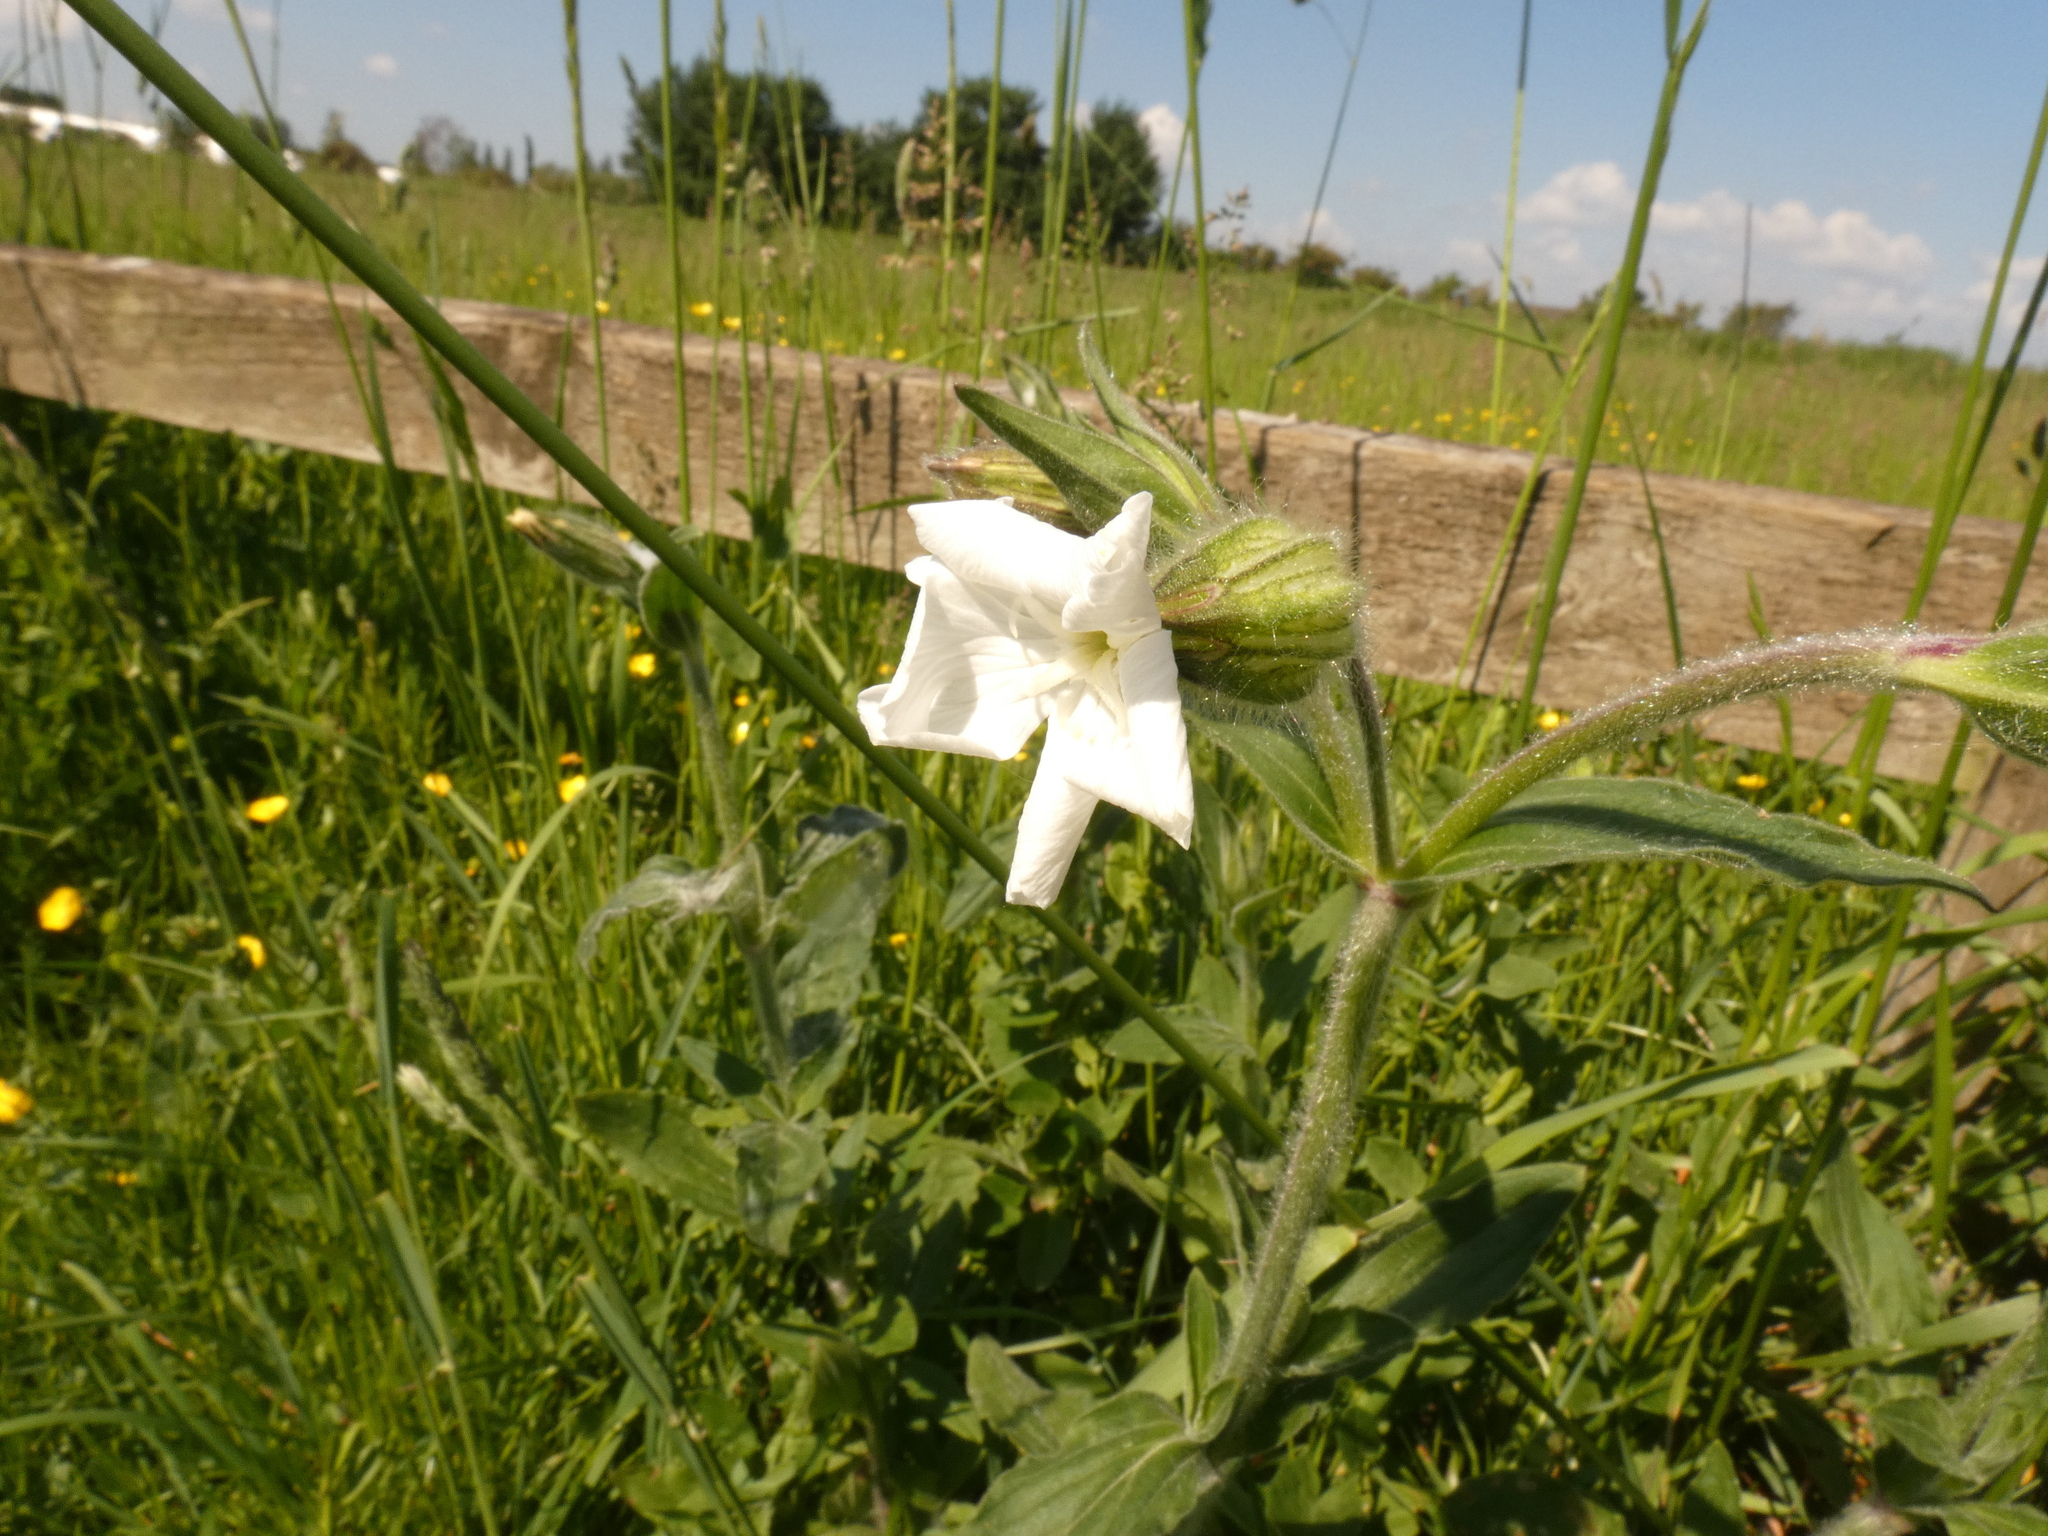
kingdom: Plantae
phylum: Tracheophyta
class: Magnoliopsida
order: Caryophyllales
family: Caryophyllaceae
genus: Silene
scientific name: Silene latifolia
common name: White campion
